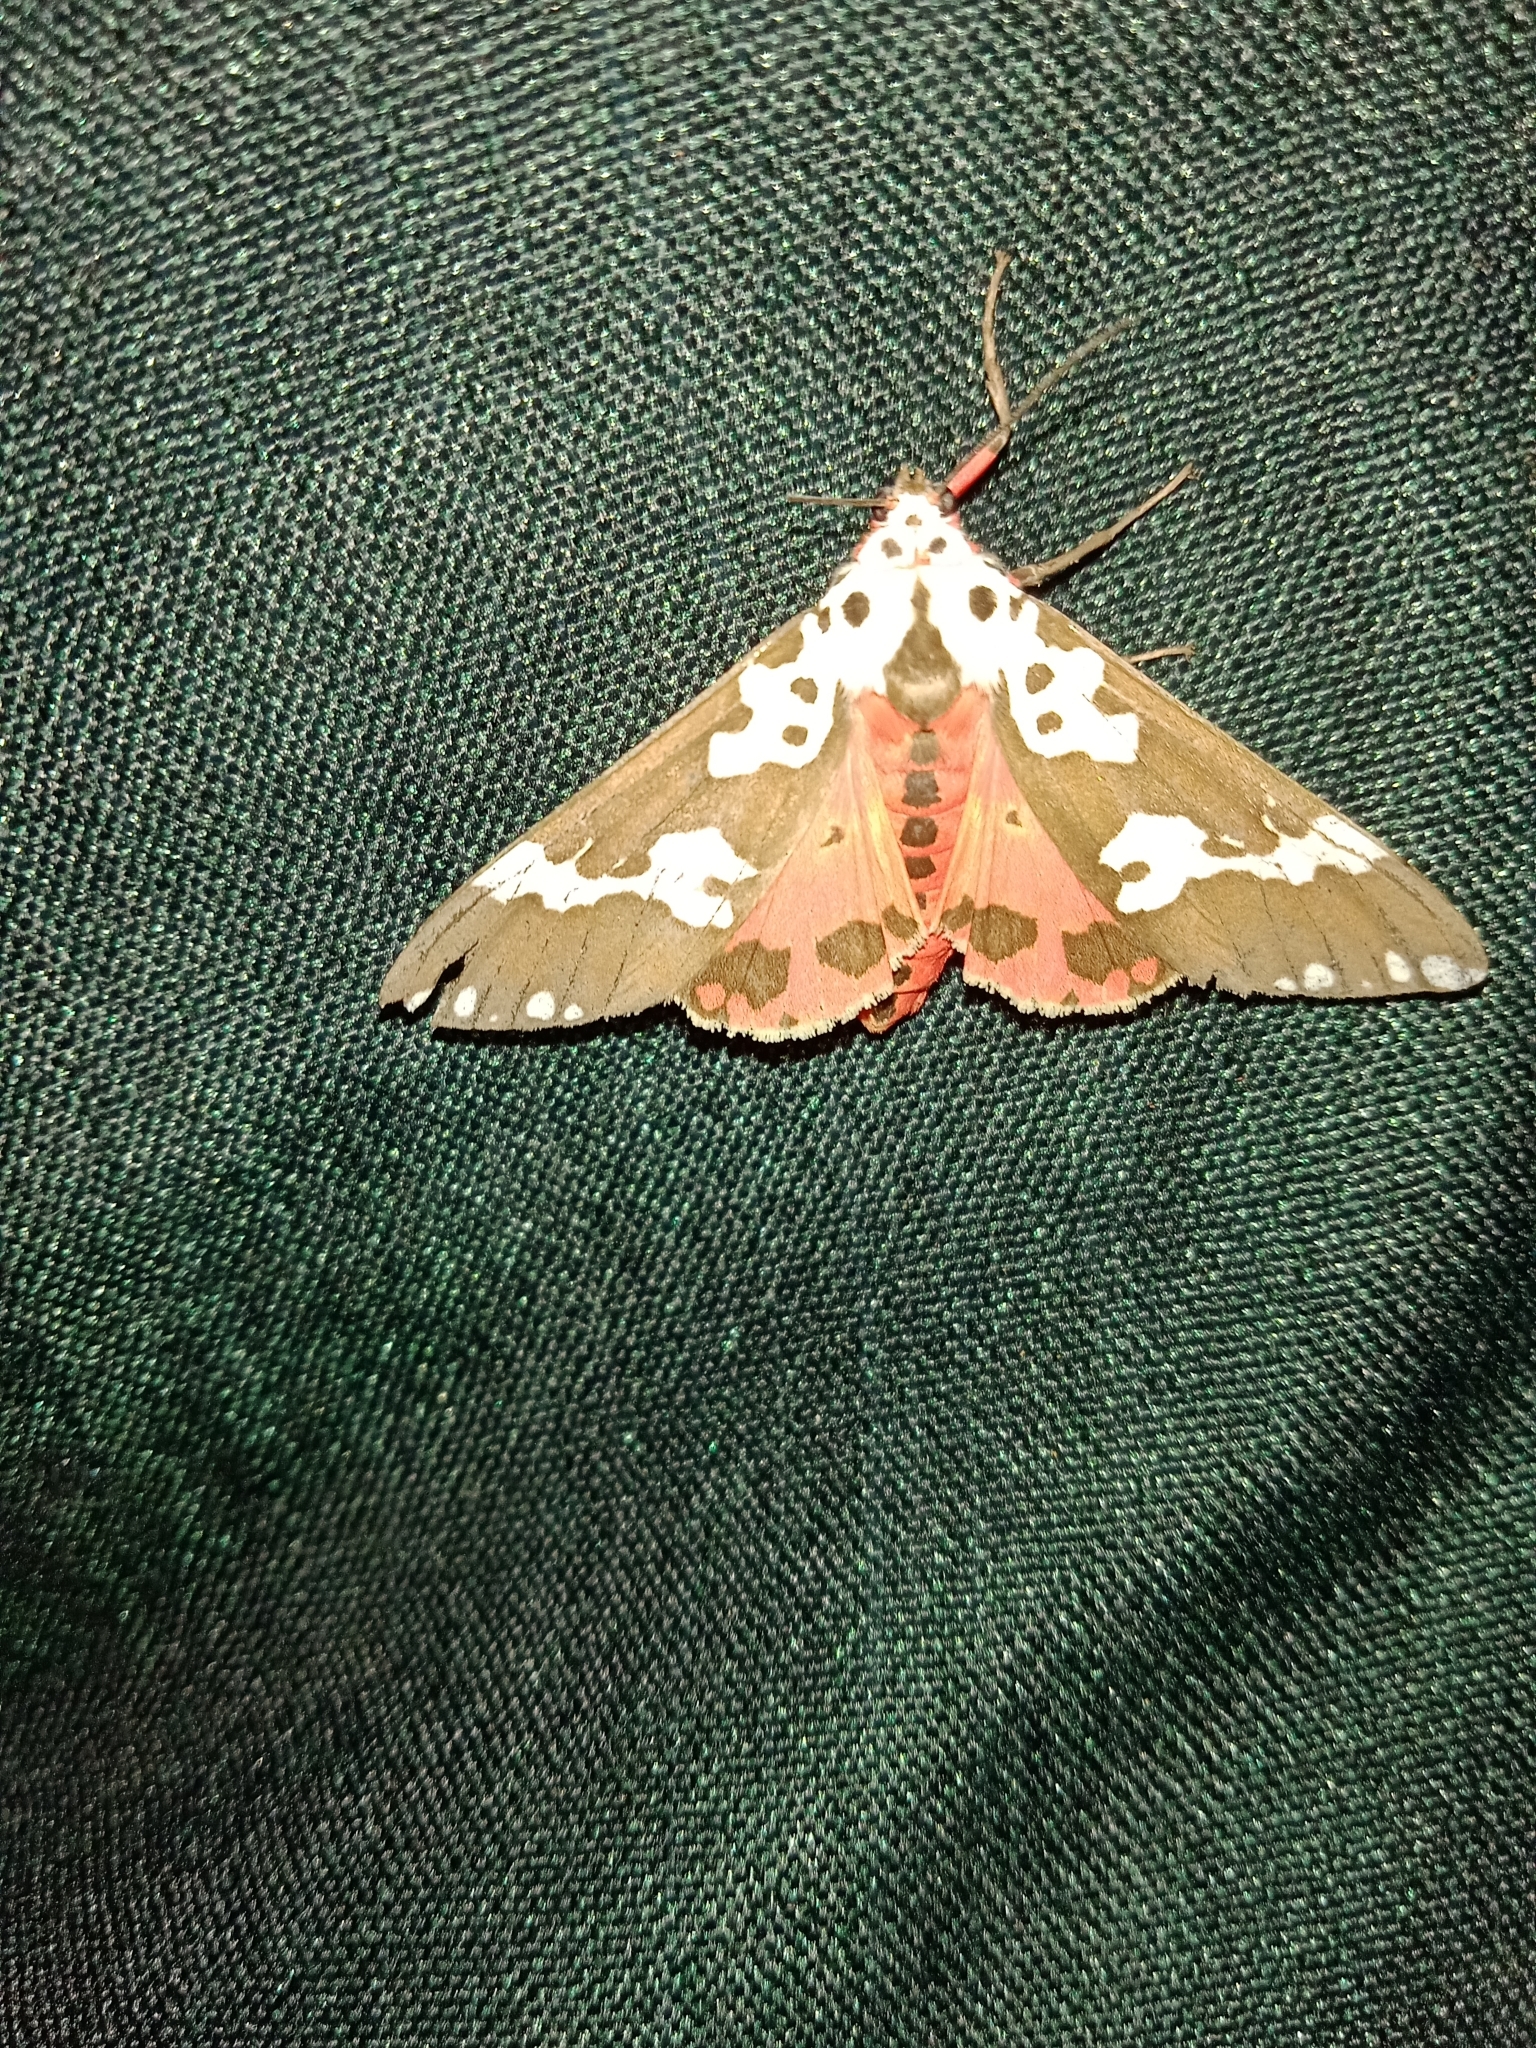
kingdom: Animalia
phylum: Arthropoda
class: Insecta
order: Lepidoptera
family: Erebidae
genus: Pericallia
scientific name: Pericallia
